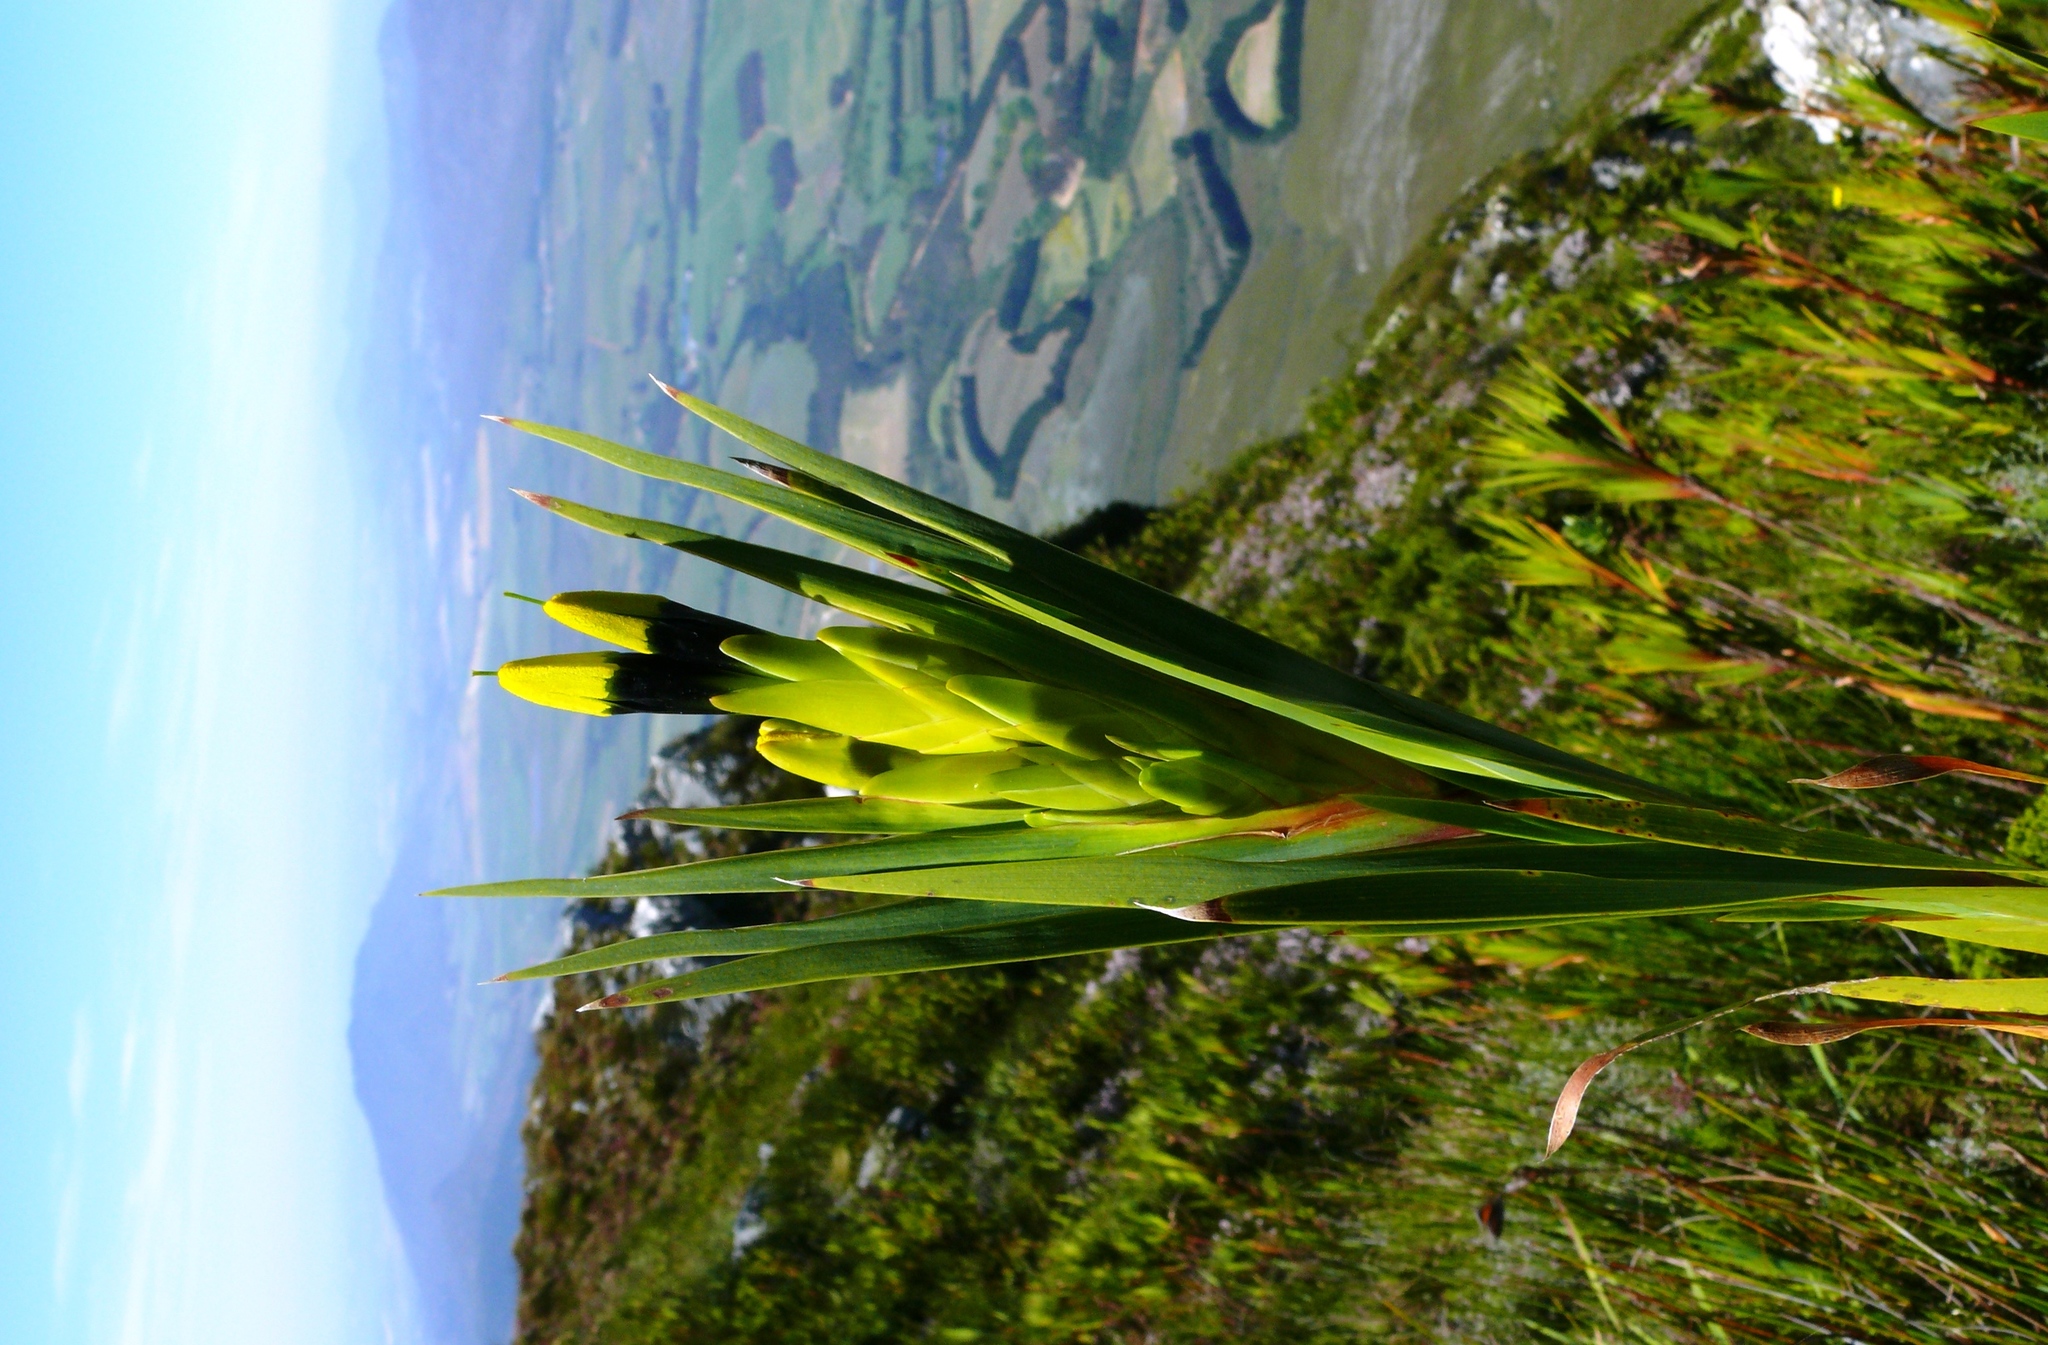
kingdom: Plantae
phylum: Tracheophyta
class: Liliopsida
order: Asparagales
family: Iridaceae
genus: Witsenia
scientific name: Witsenia maura
